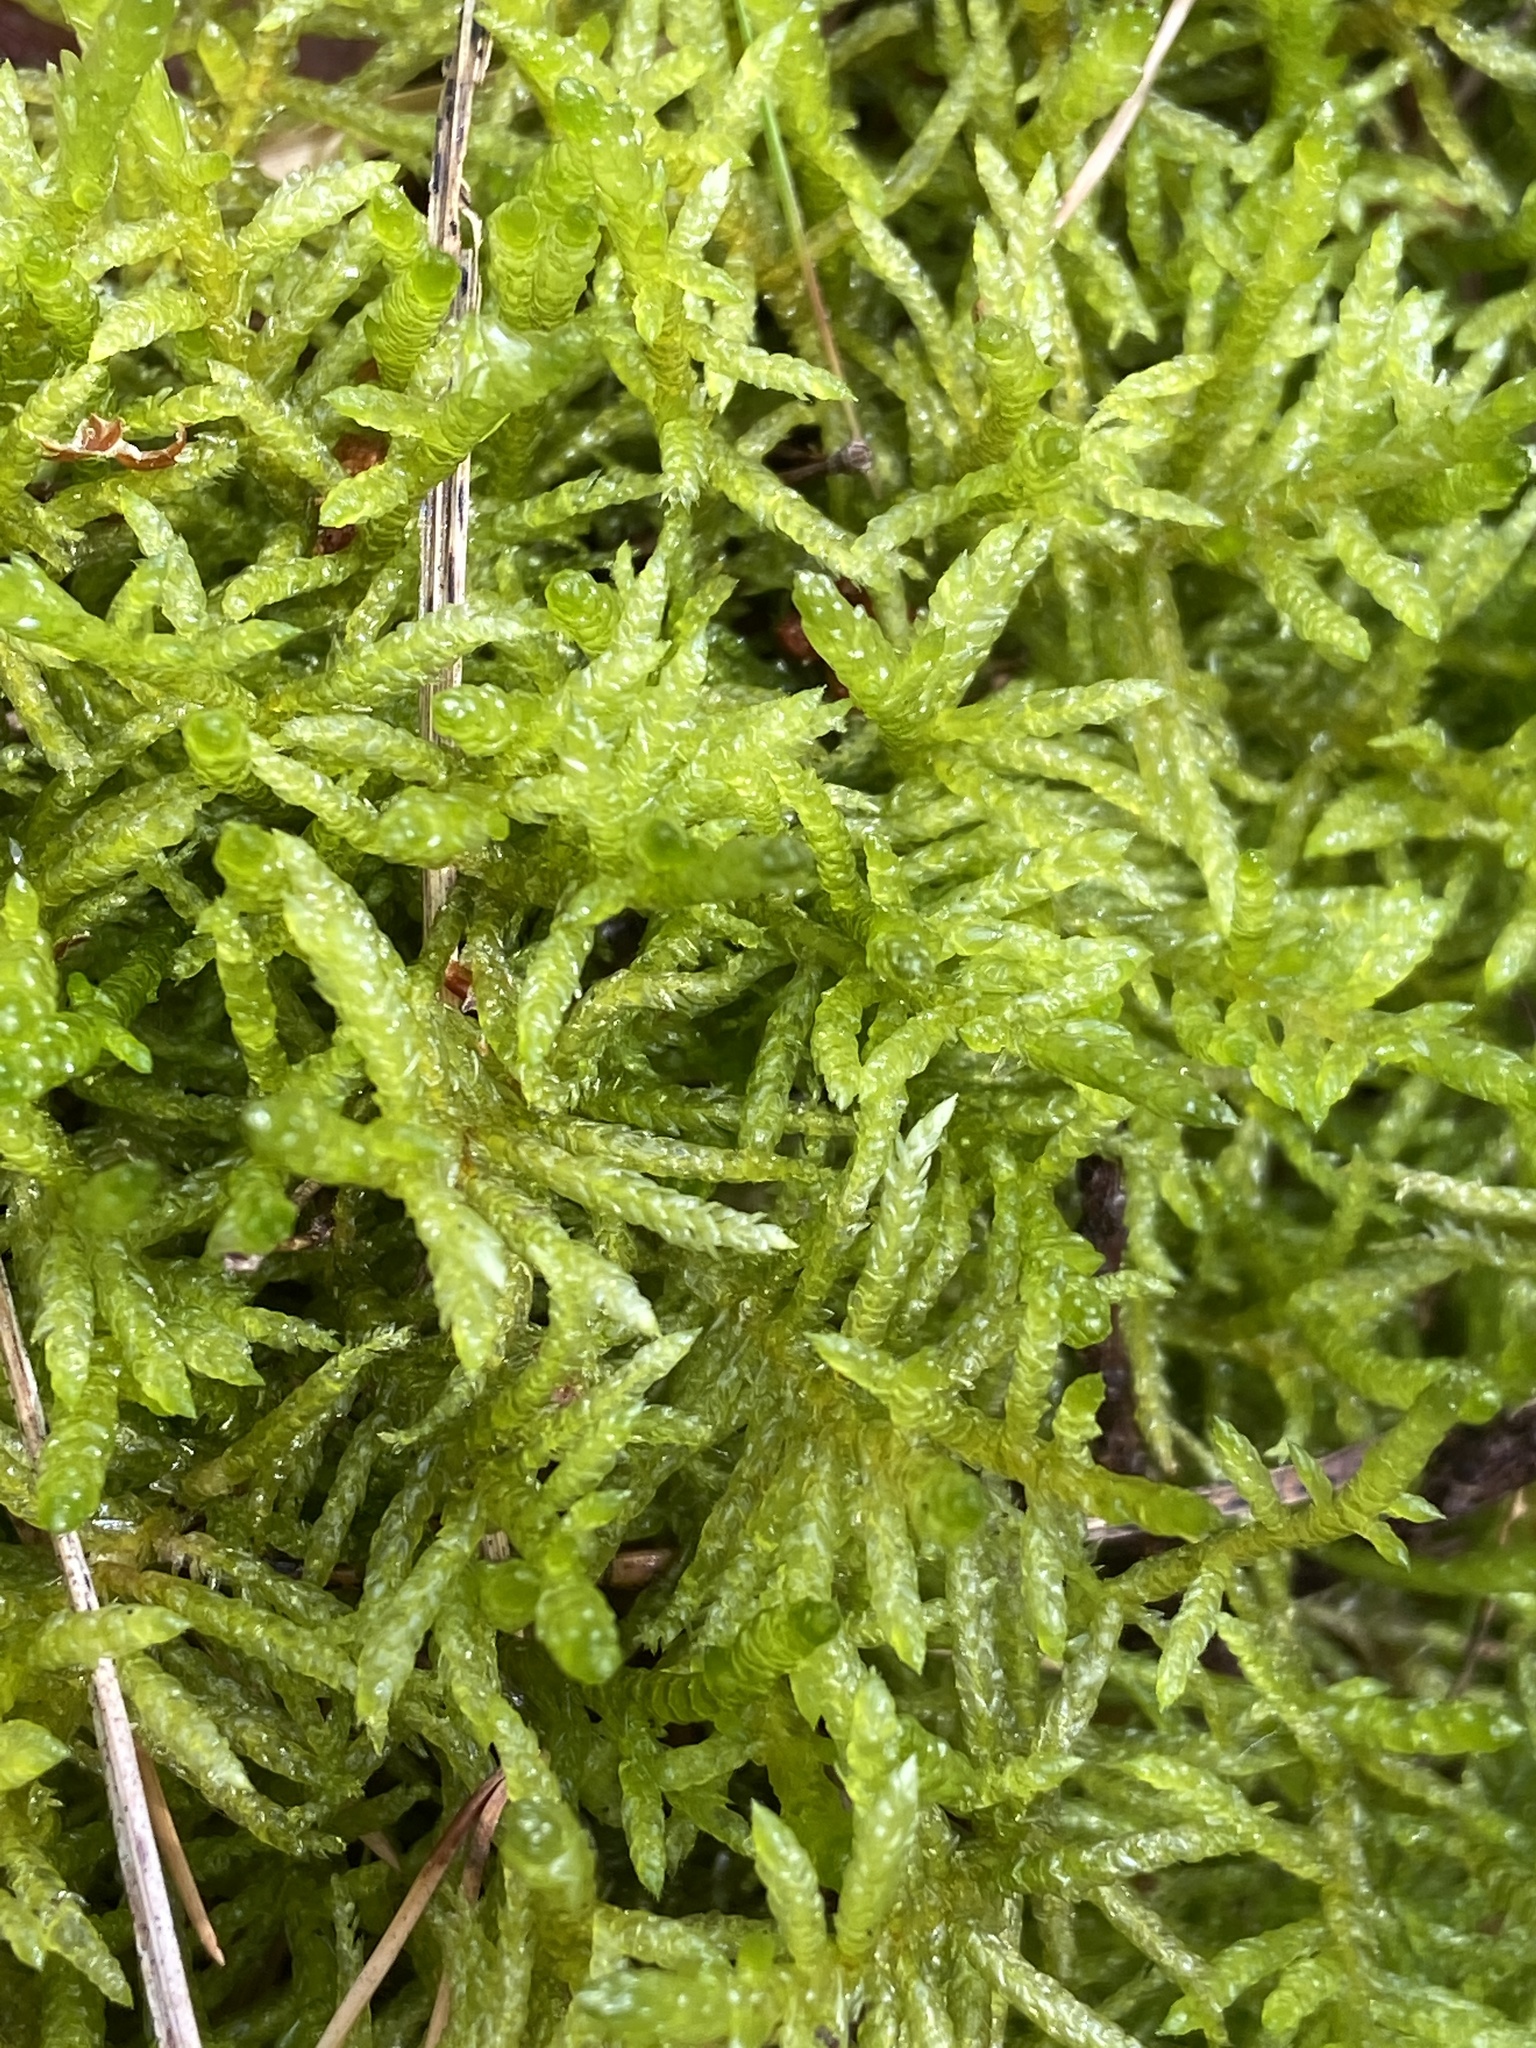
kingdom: Plantae
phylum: Bryophyta
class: Bryopsida
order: Hypnales
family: Brachytheciaceae
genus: Pseudoscleropodium
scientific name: Pseudoscleropodium purum
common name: Neat feather-moss
